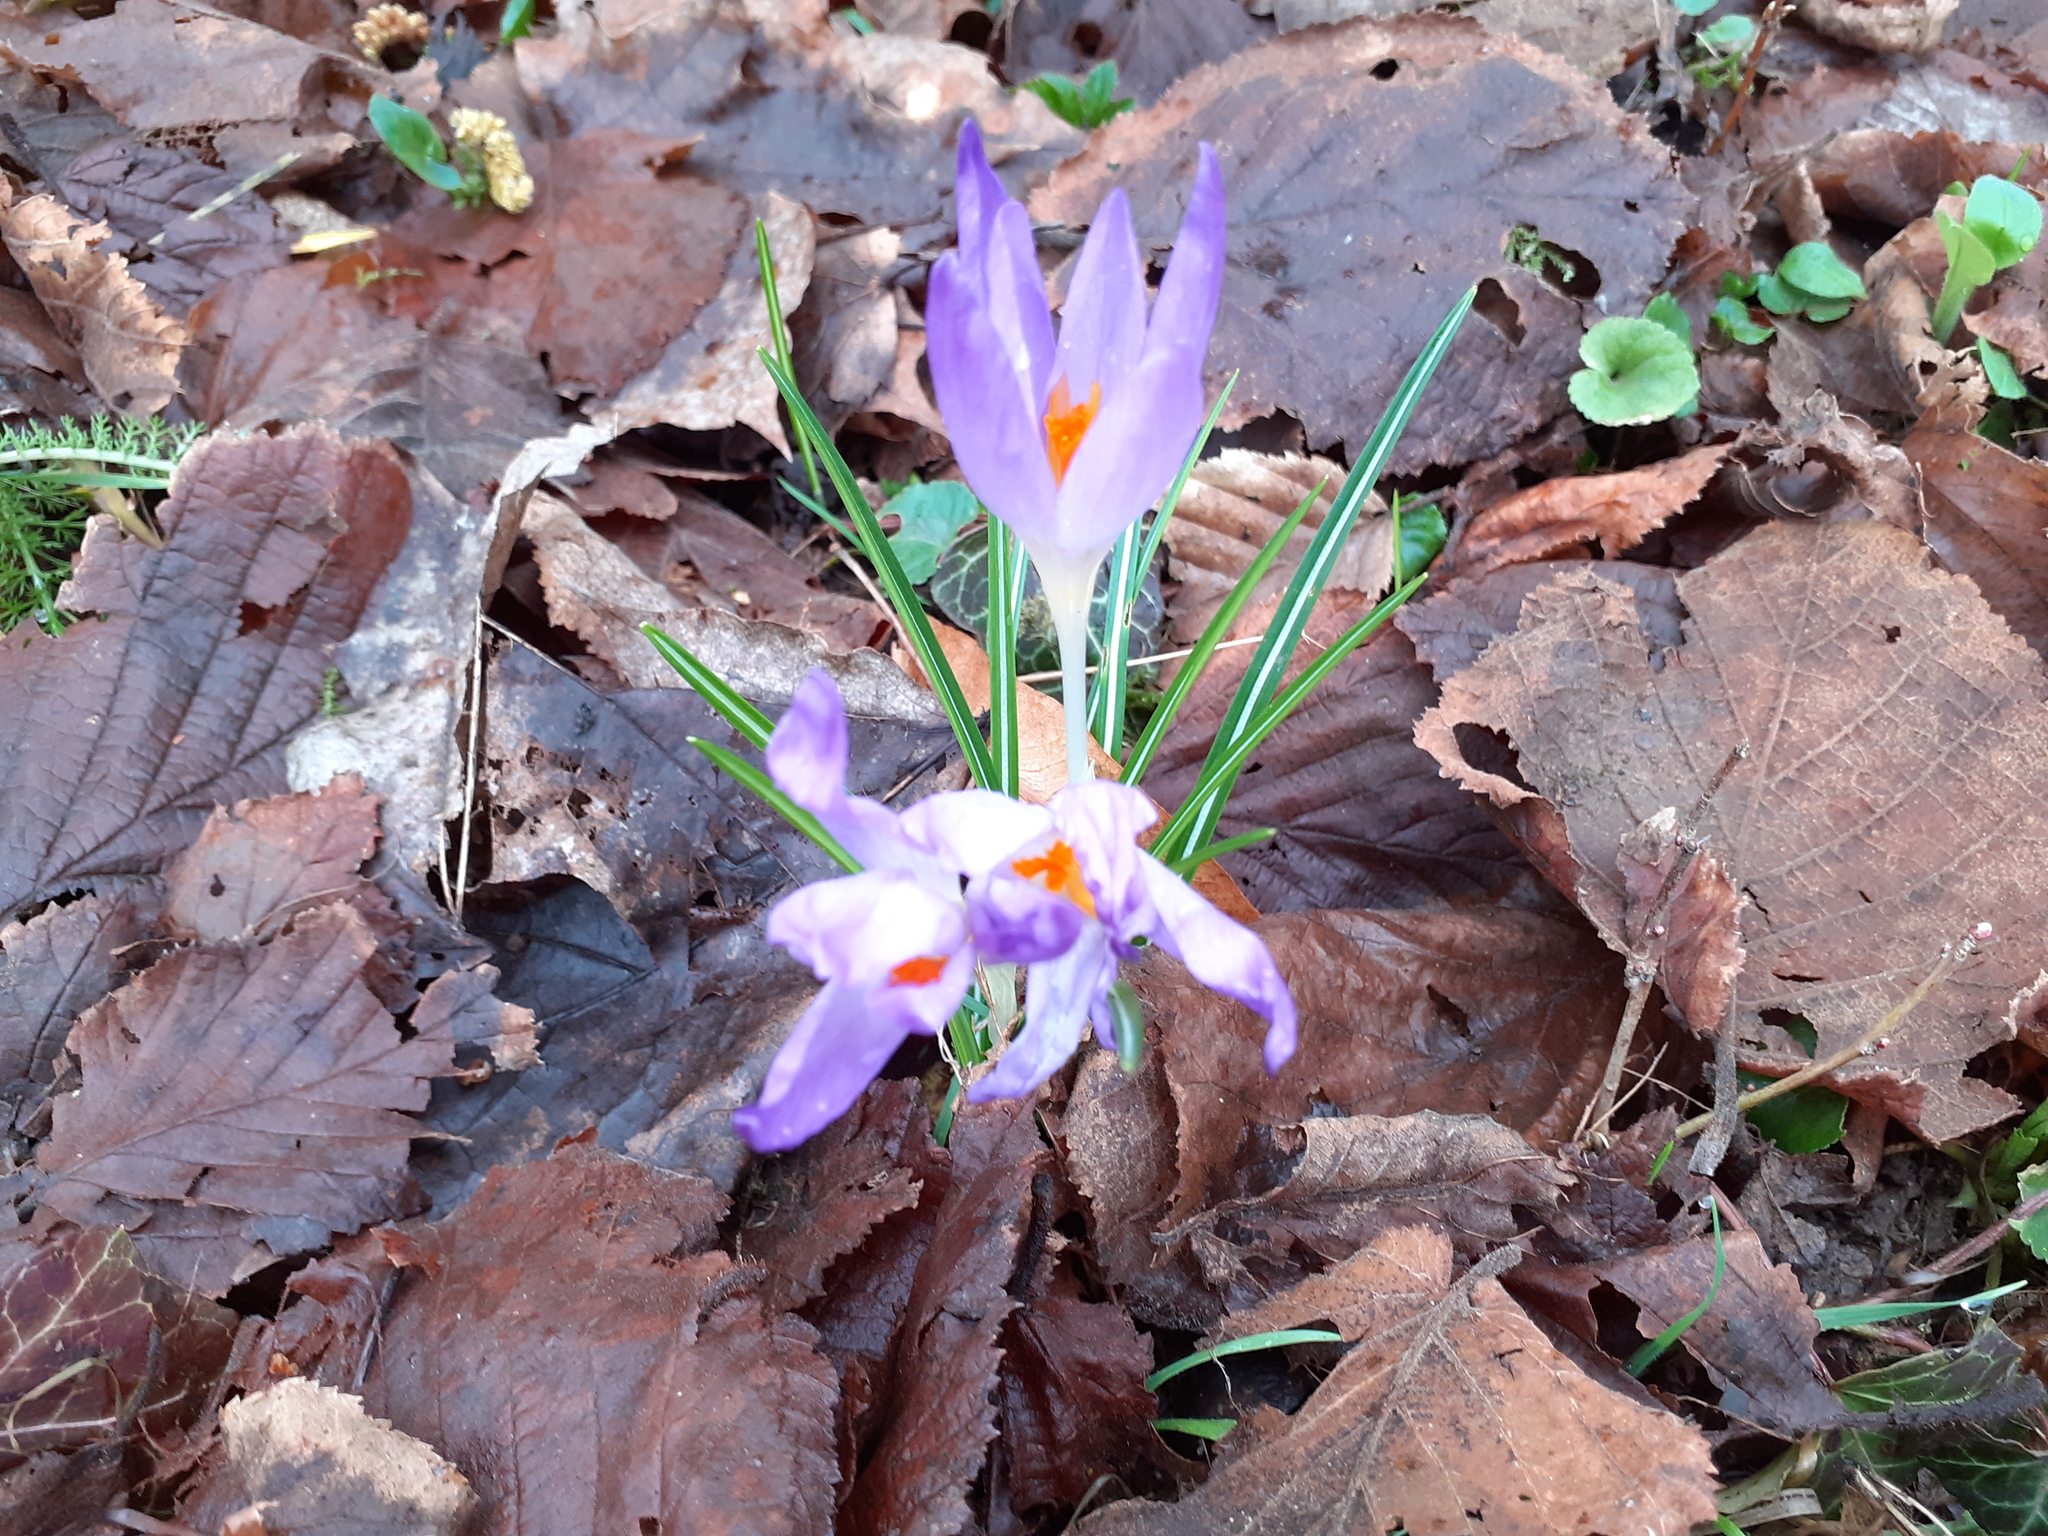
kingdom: Plantae
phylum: Tracheophyta
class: Liliopsida
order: Asparagales
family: Iridaceae
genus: Crocus
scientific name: Crocus tommasinianus
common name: Early crocus
